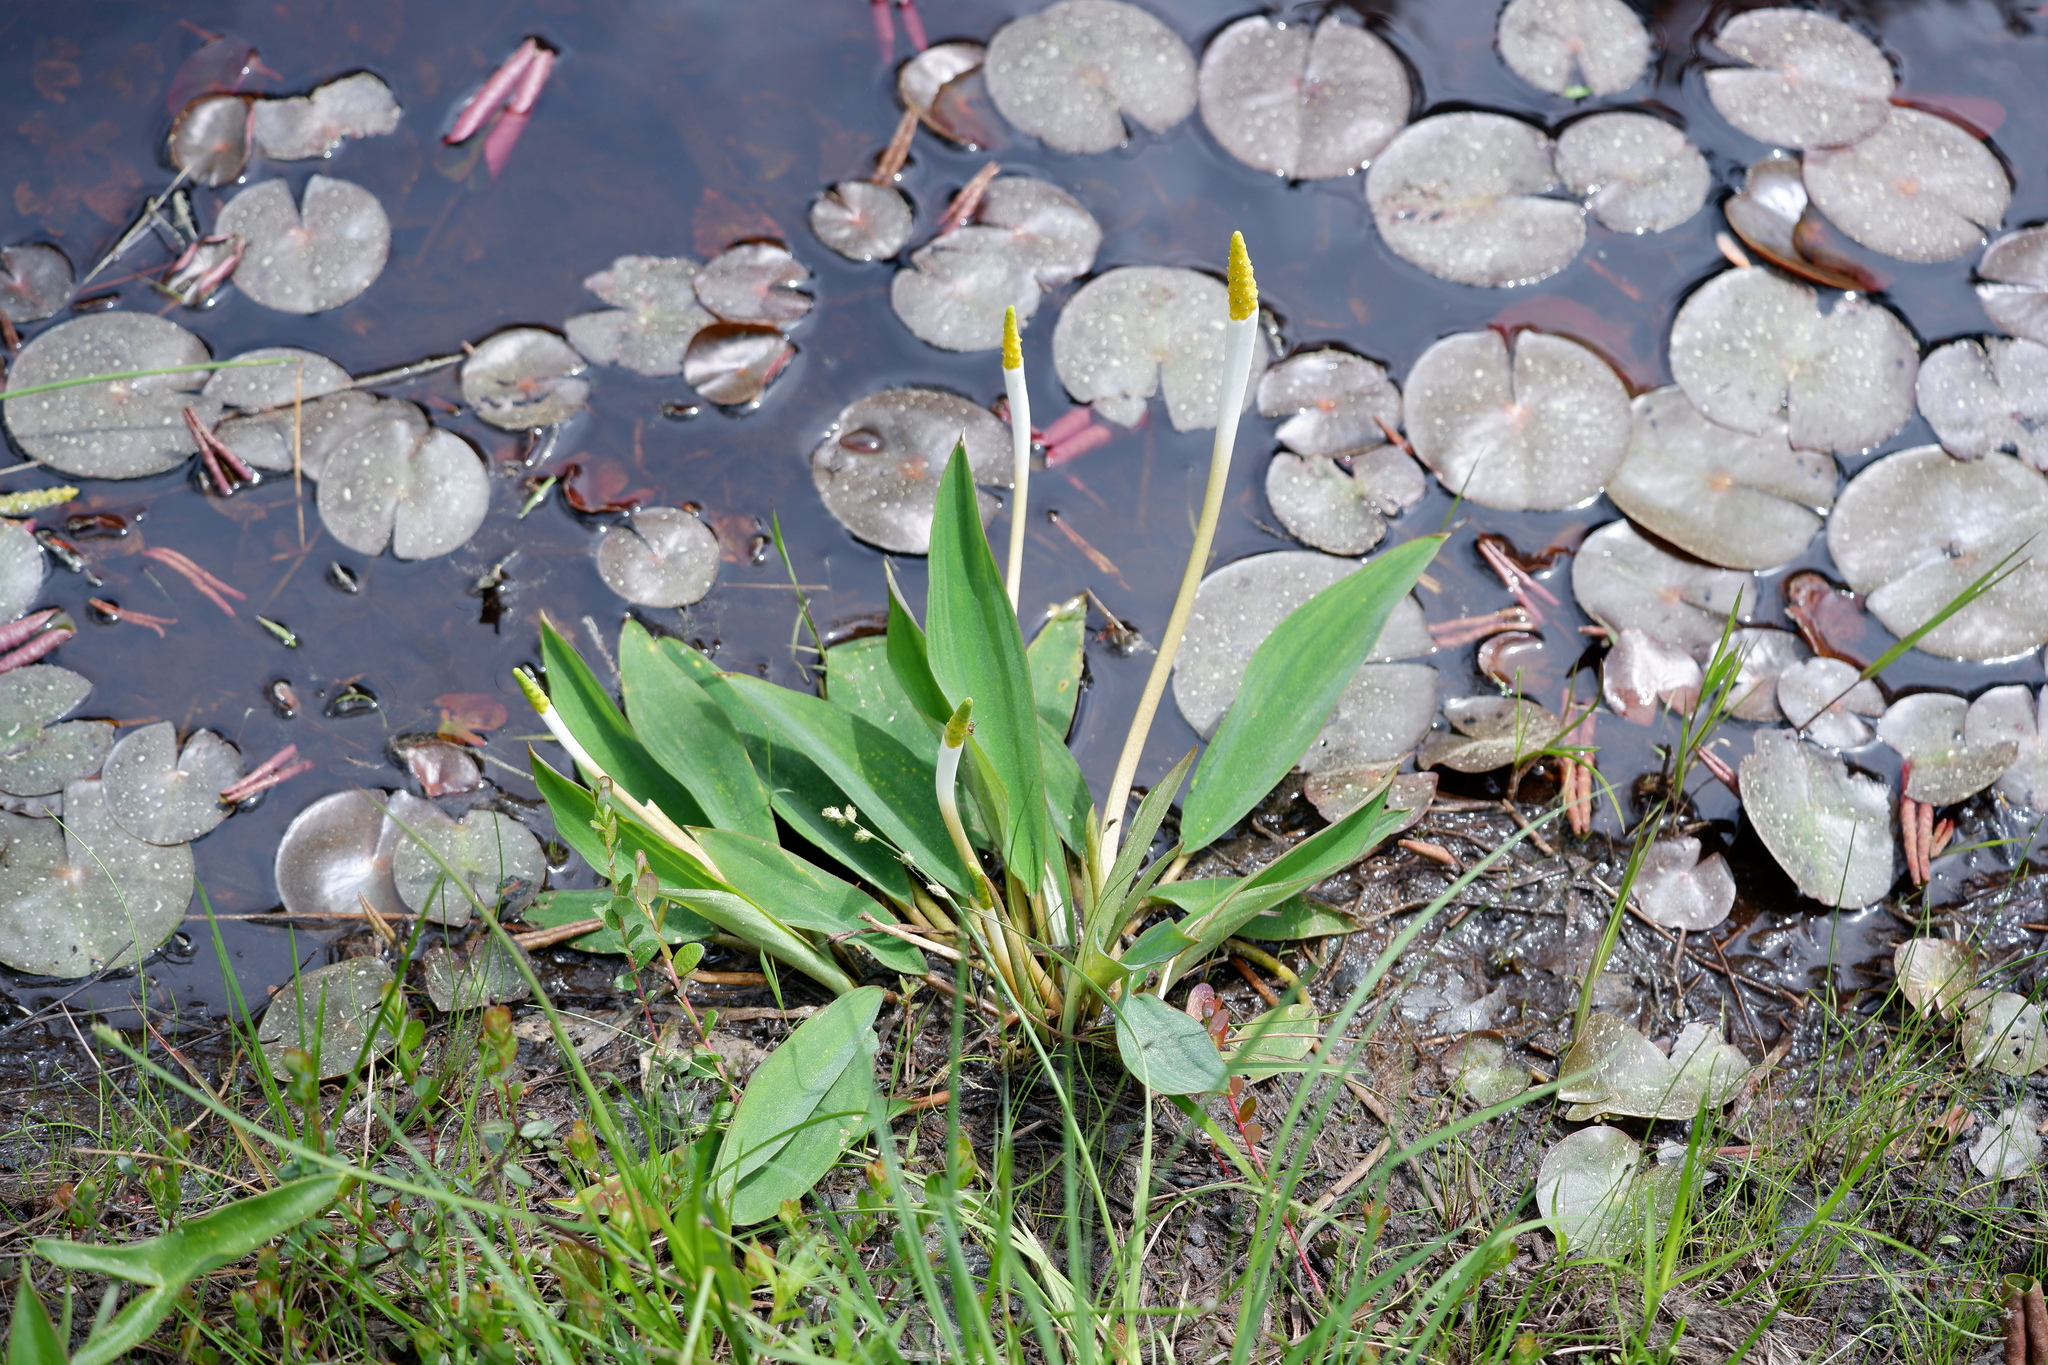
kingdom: Plantae
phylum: Tracheophyta
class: Liliopsida
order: Alismatales
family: Araceae
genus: Orontium
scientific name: Orontium aquaticum
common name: Golden-club
